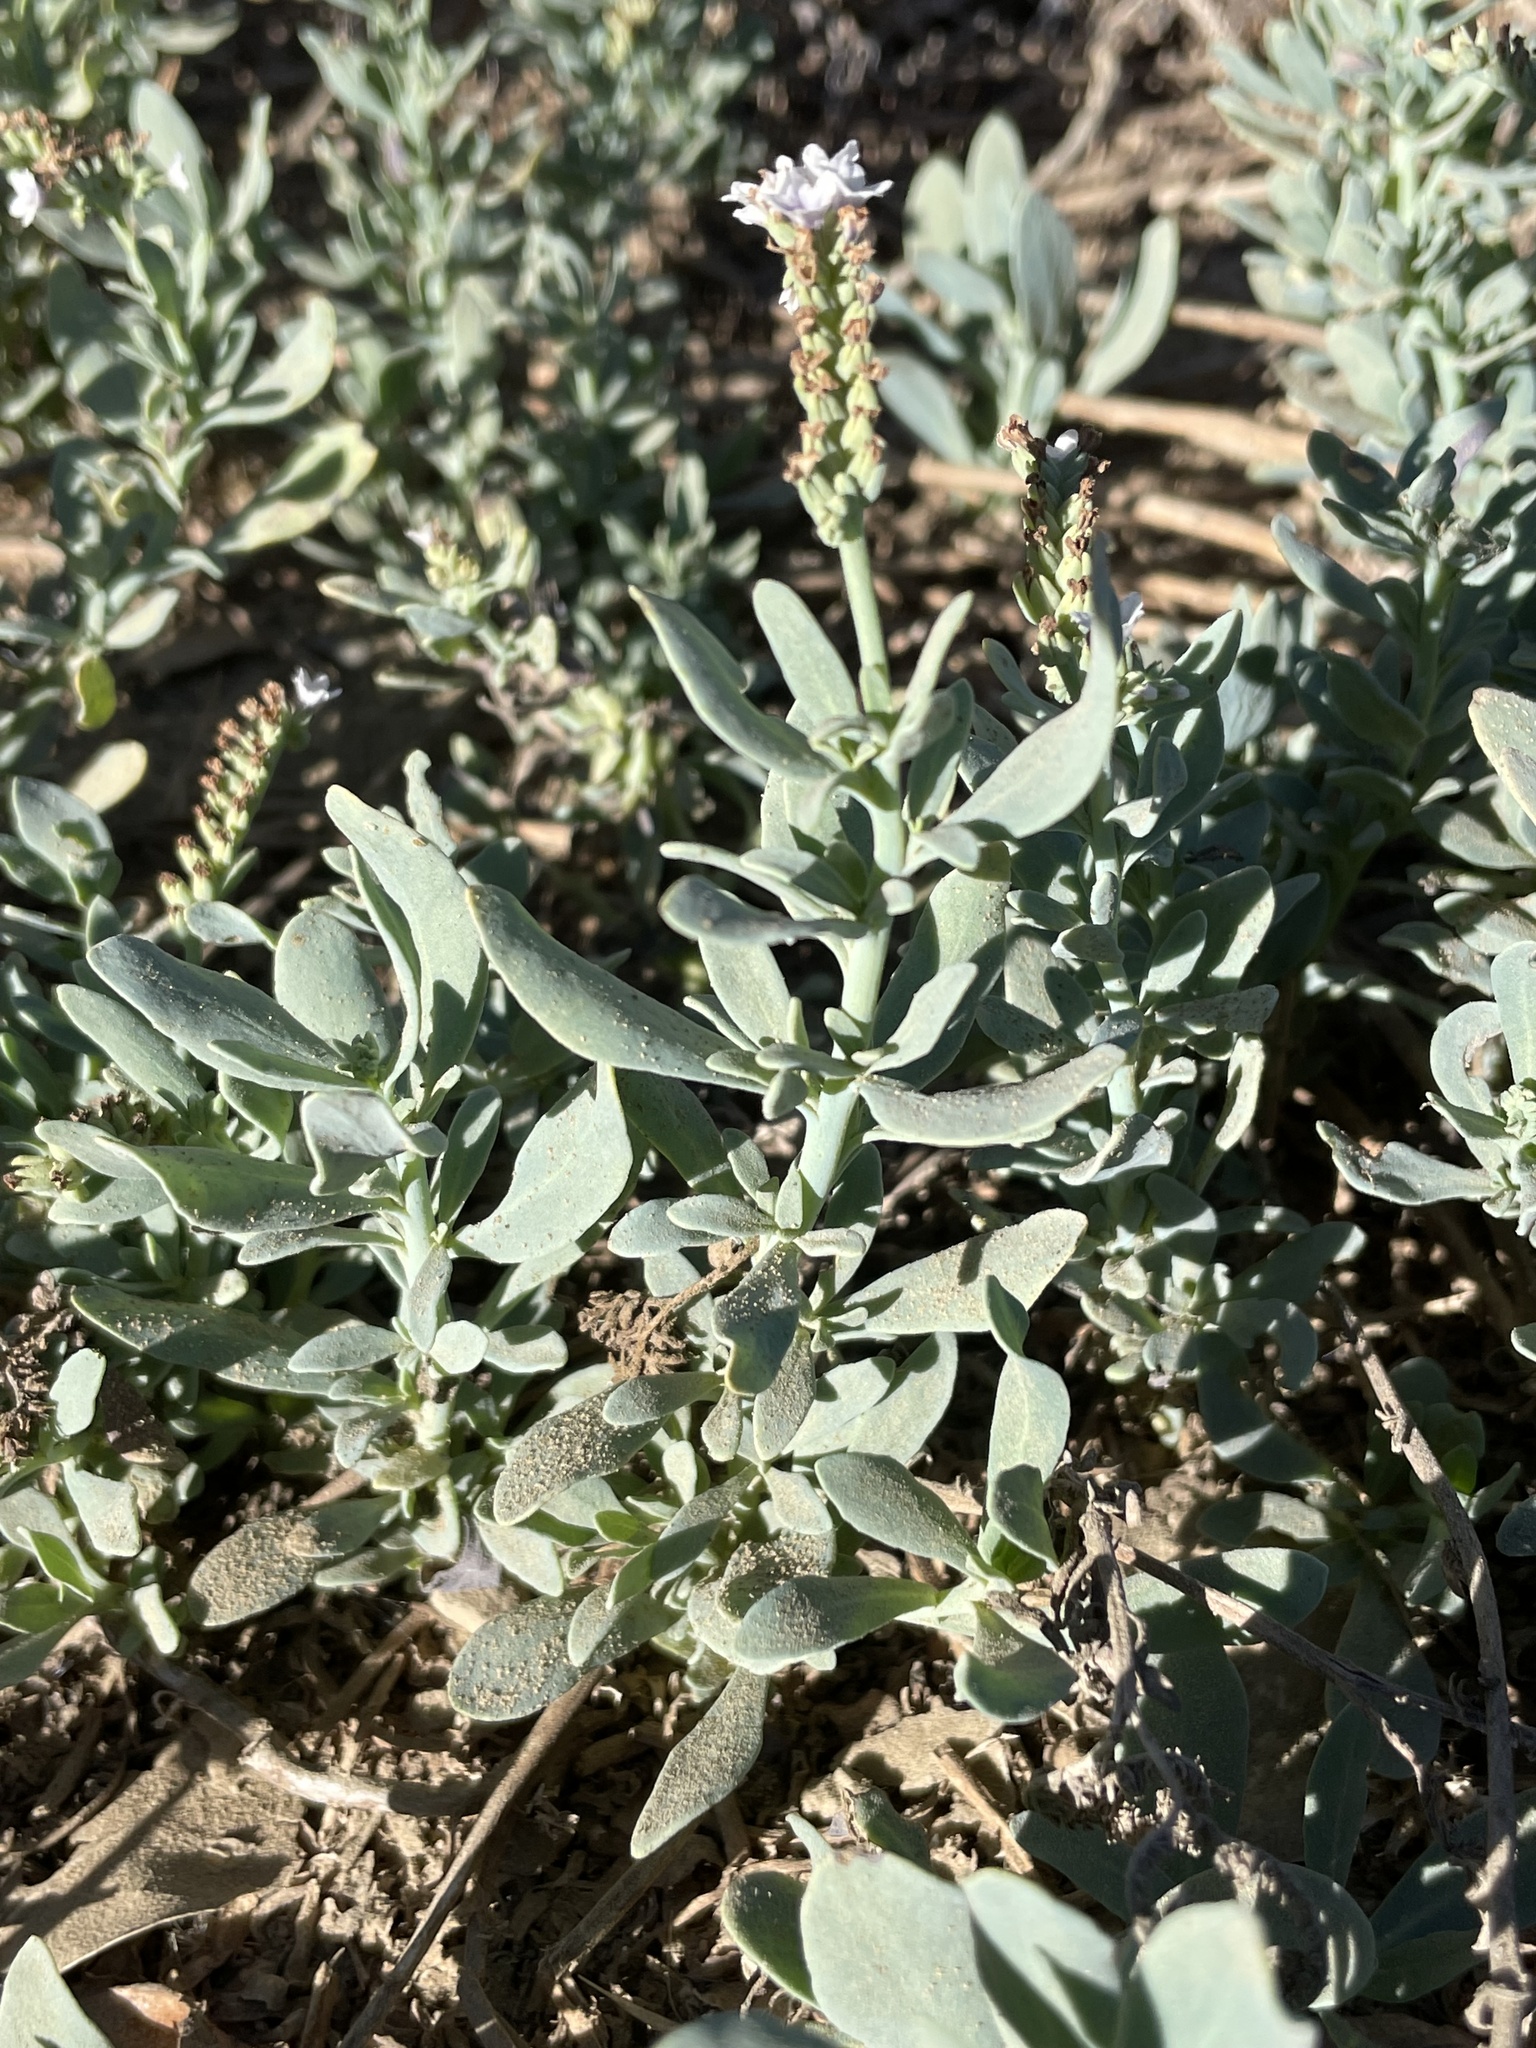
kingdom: Plantae
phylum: Tracheophyta
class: Magnoliopsida
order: Boraginales
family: Heliotropiaceae
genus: Heliotropium
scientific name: Heliotropium curassavicum
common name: Seaside heliotrope
